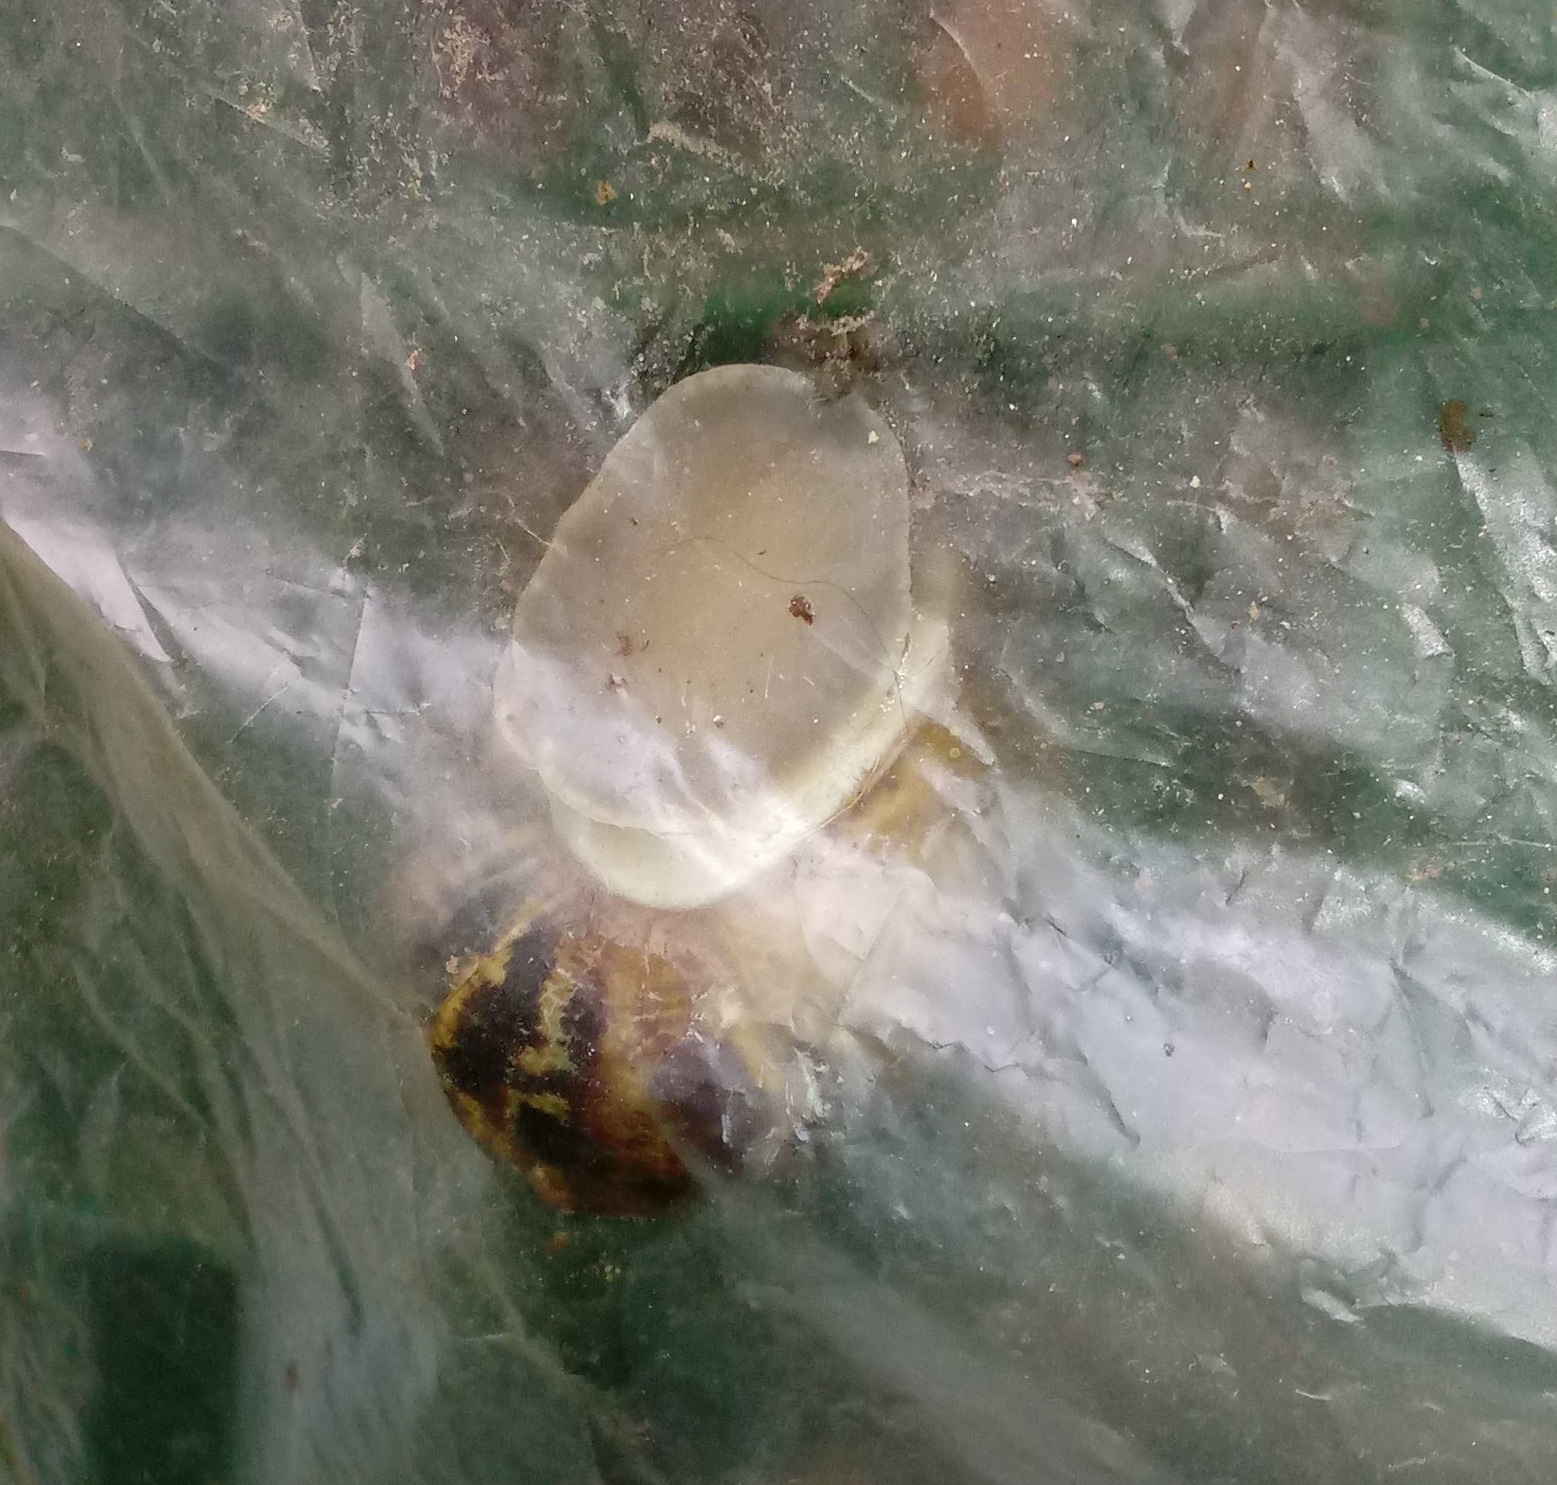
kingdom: Animalia
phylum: Mollusca
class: Gastropoda
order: Stylommatophora
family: Helicidae
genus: Cornu
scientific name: Cornu aspersum
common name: Brown garden snail
